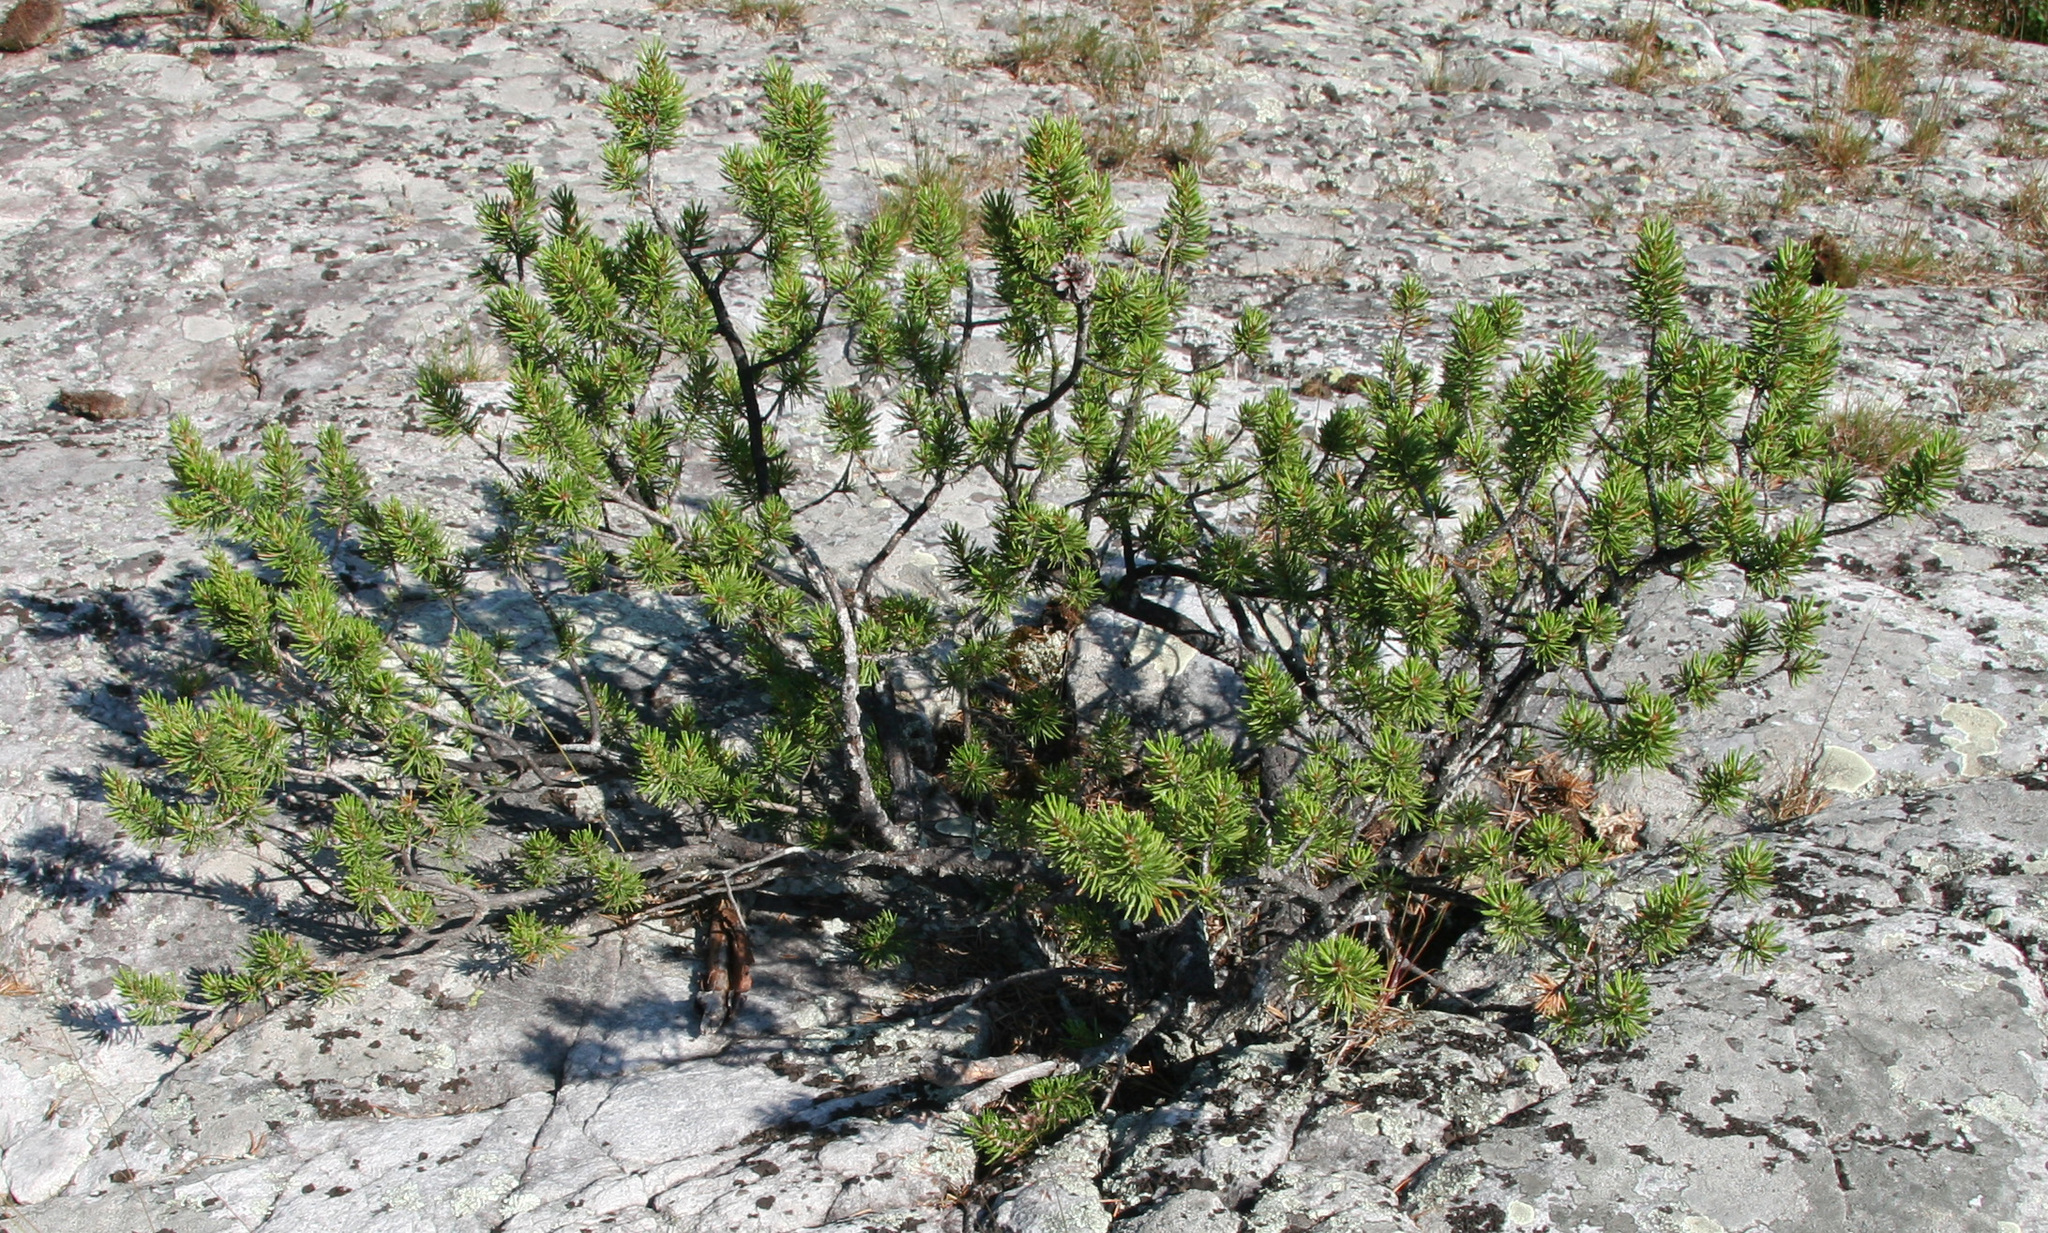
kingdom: Plantae
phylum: Tracheophyta
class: Pinopsida
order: Pinales
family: Pinaceae
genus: Pinus
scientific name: Pinus banksiana
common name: Jack pine
